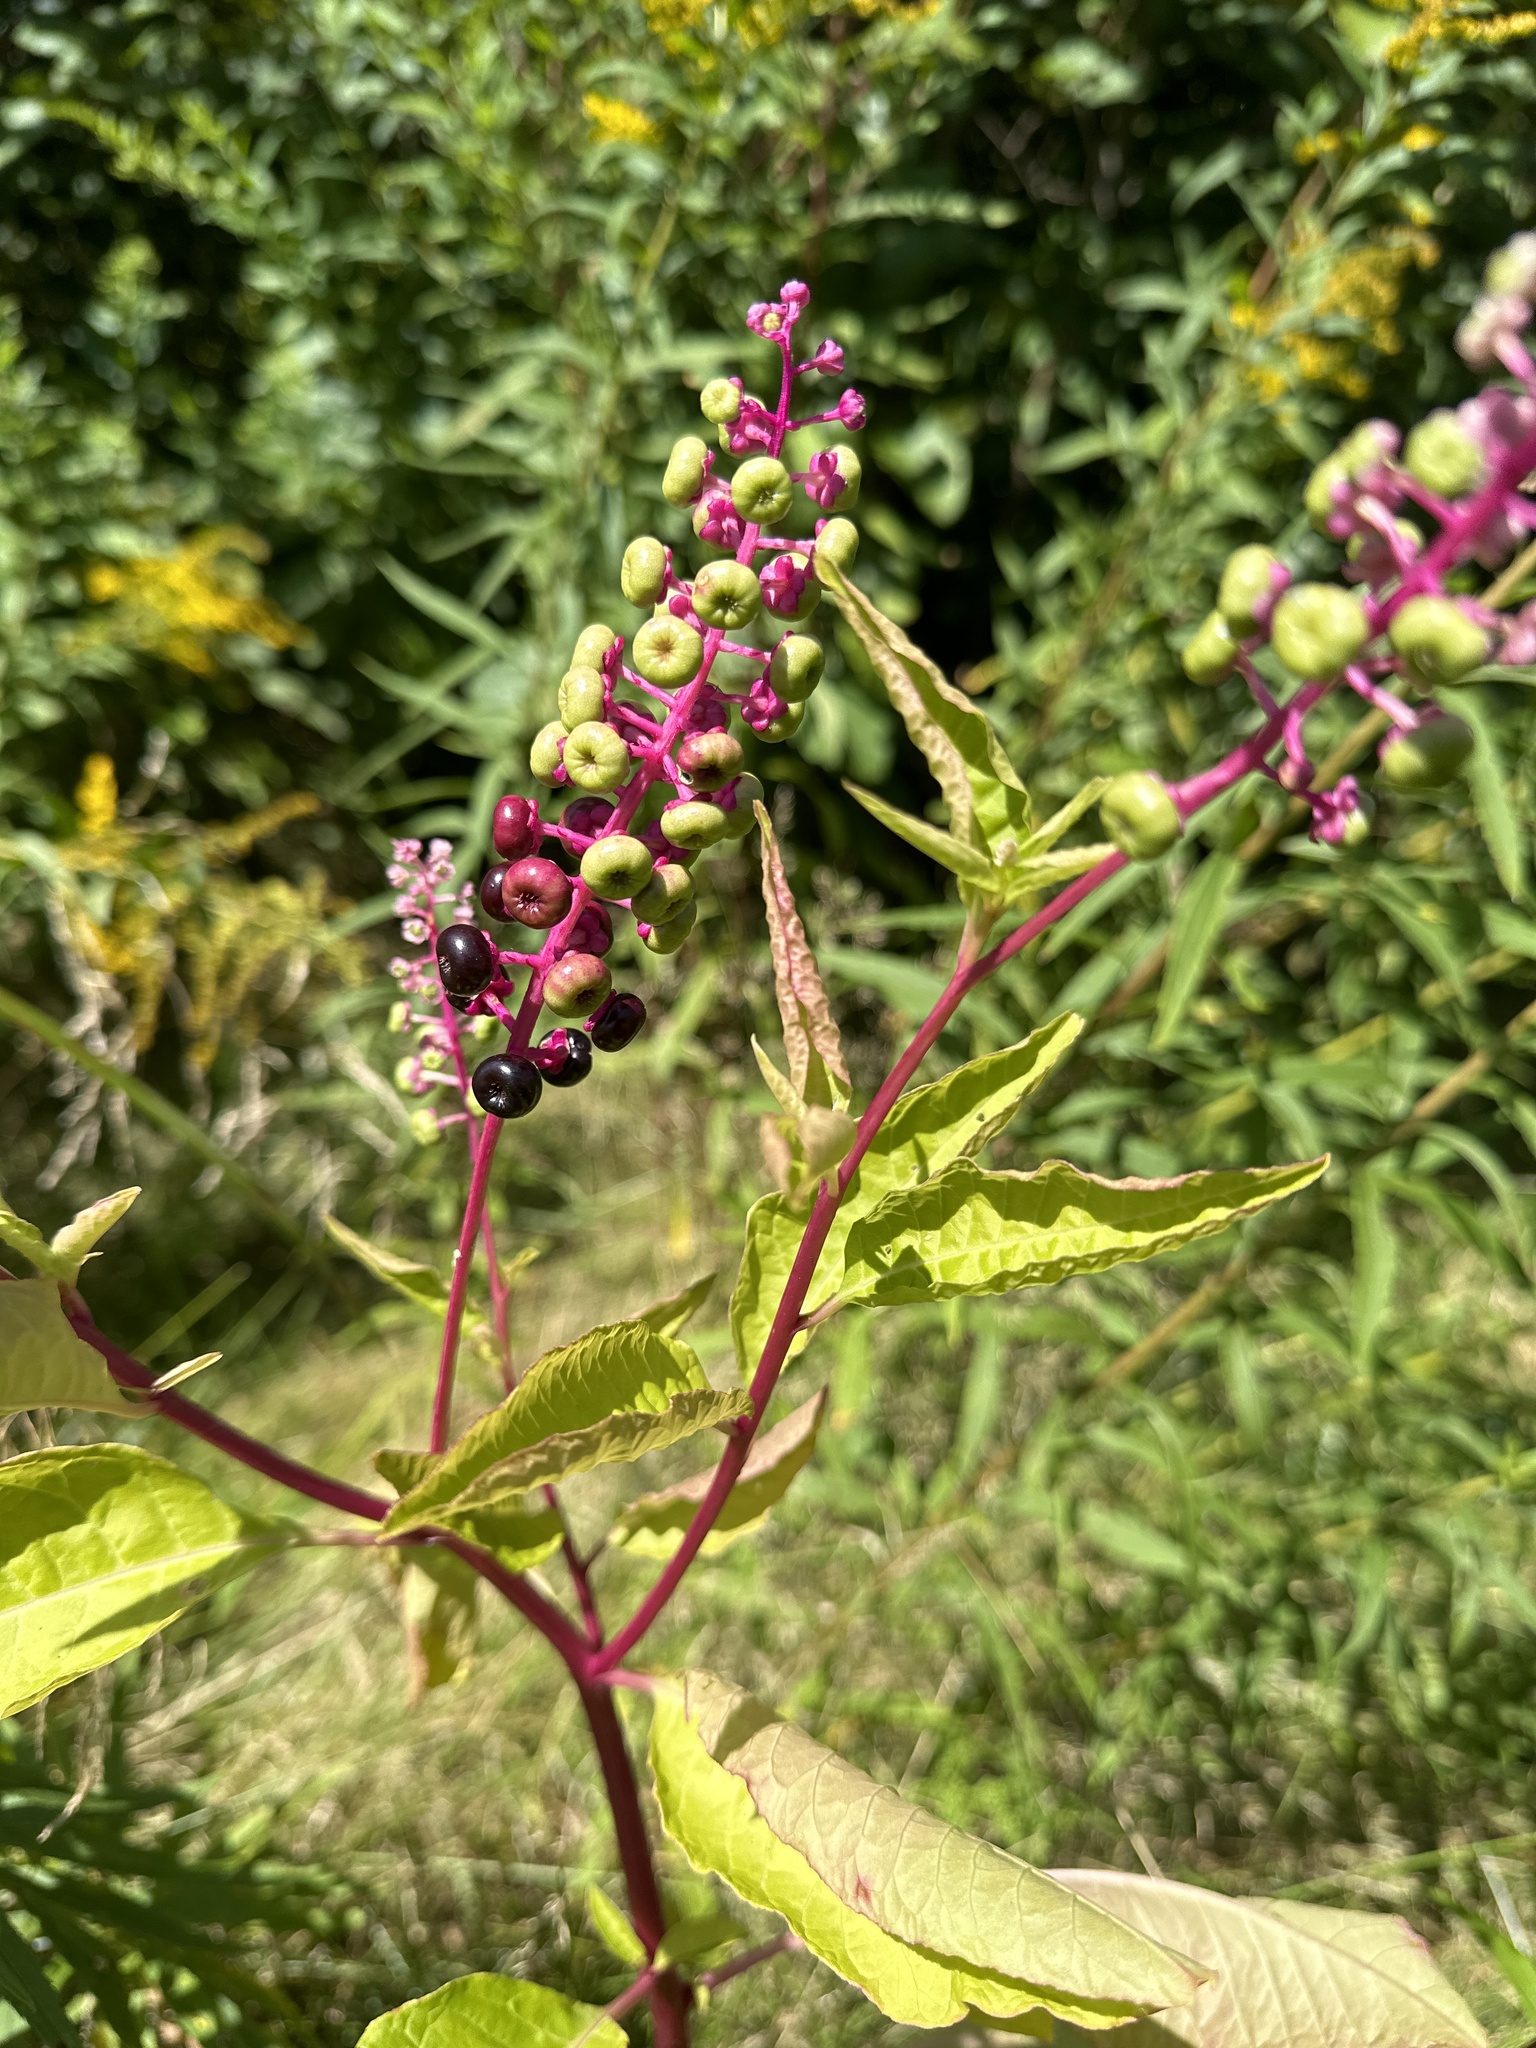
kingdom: Plantae
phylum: Tracheophyta
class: Magnoliopsida
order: Caryophyllales
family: Phytolaccaceae
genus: Phytolacca
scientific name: Phytolacca americana
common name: American pokeweed
